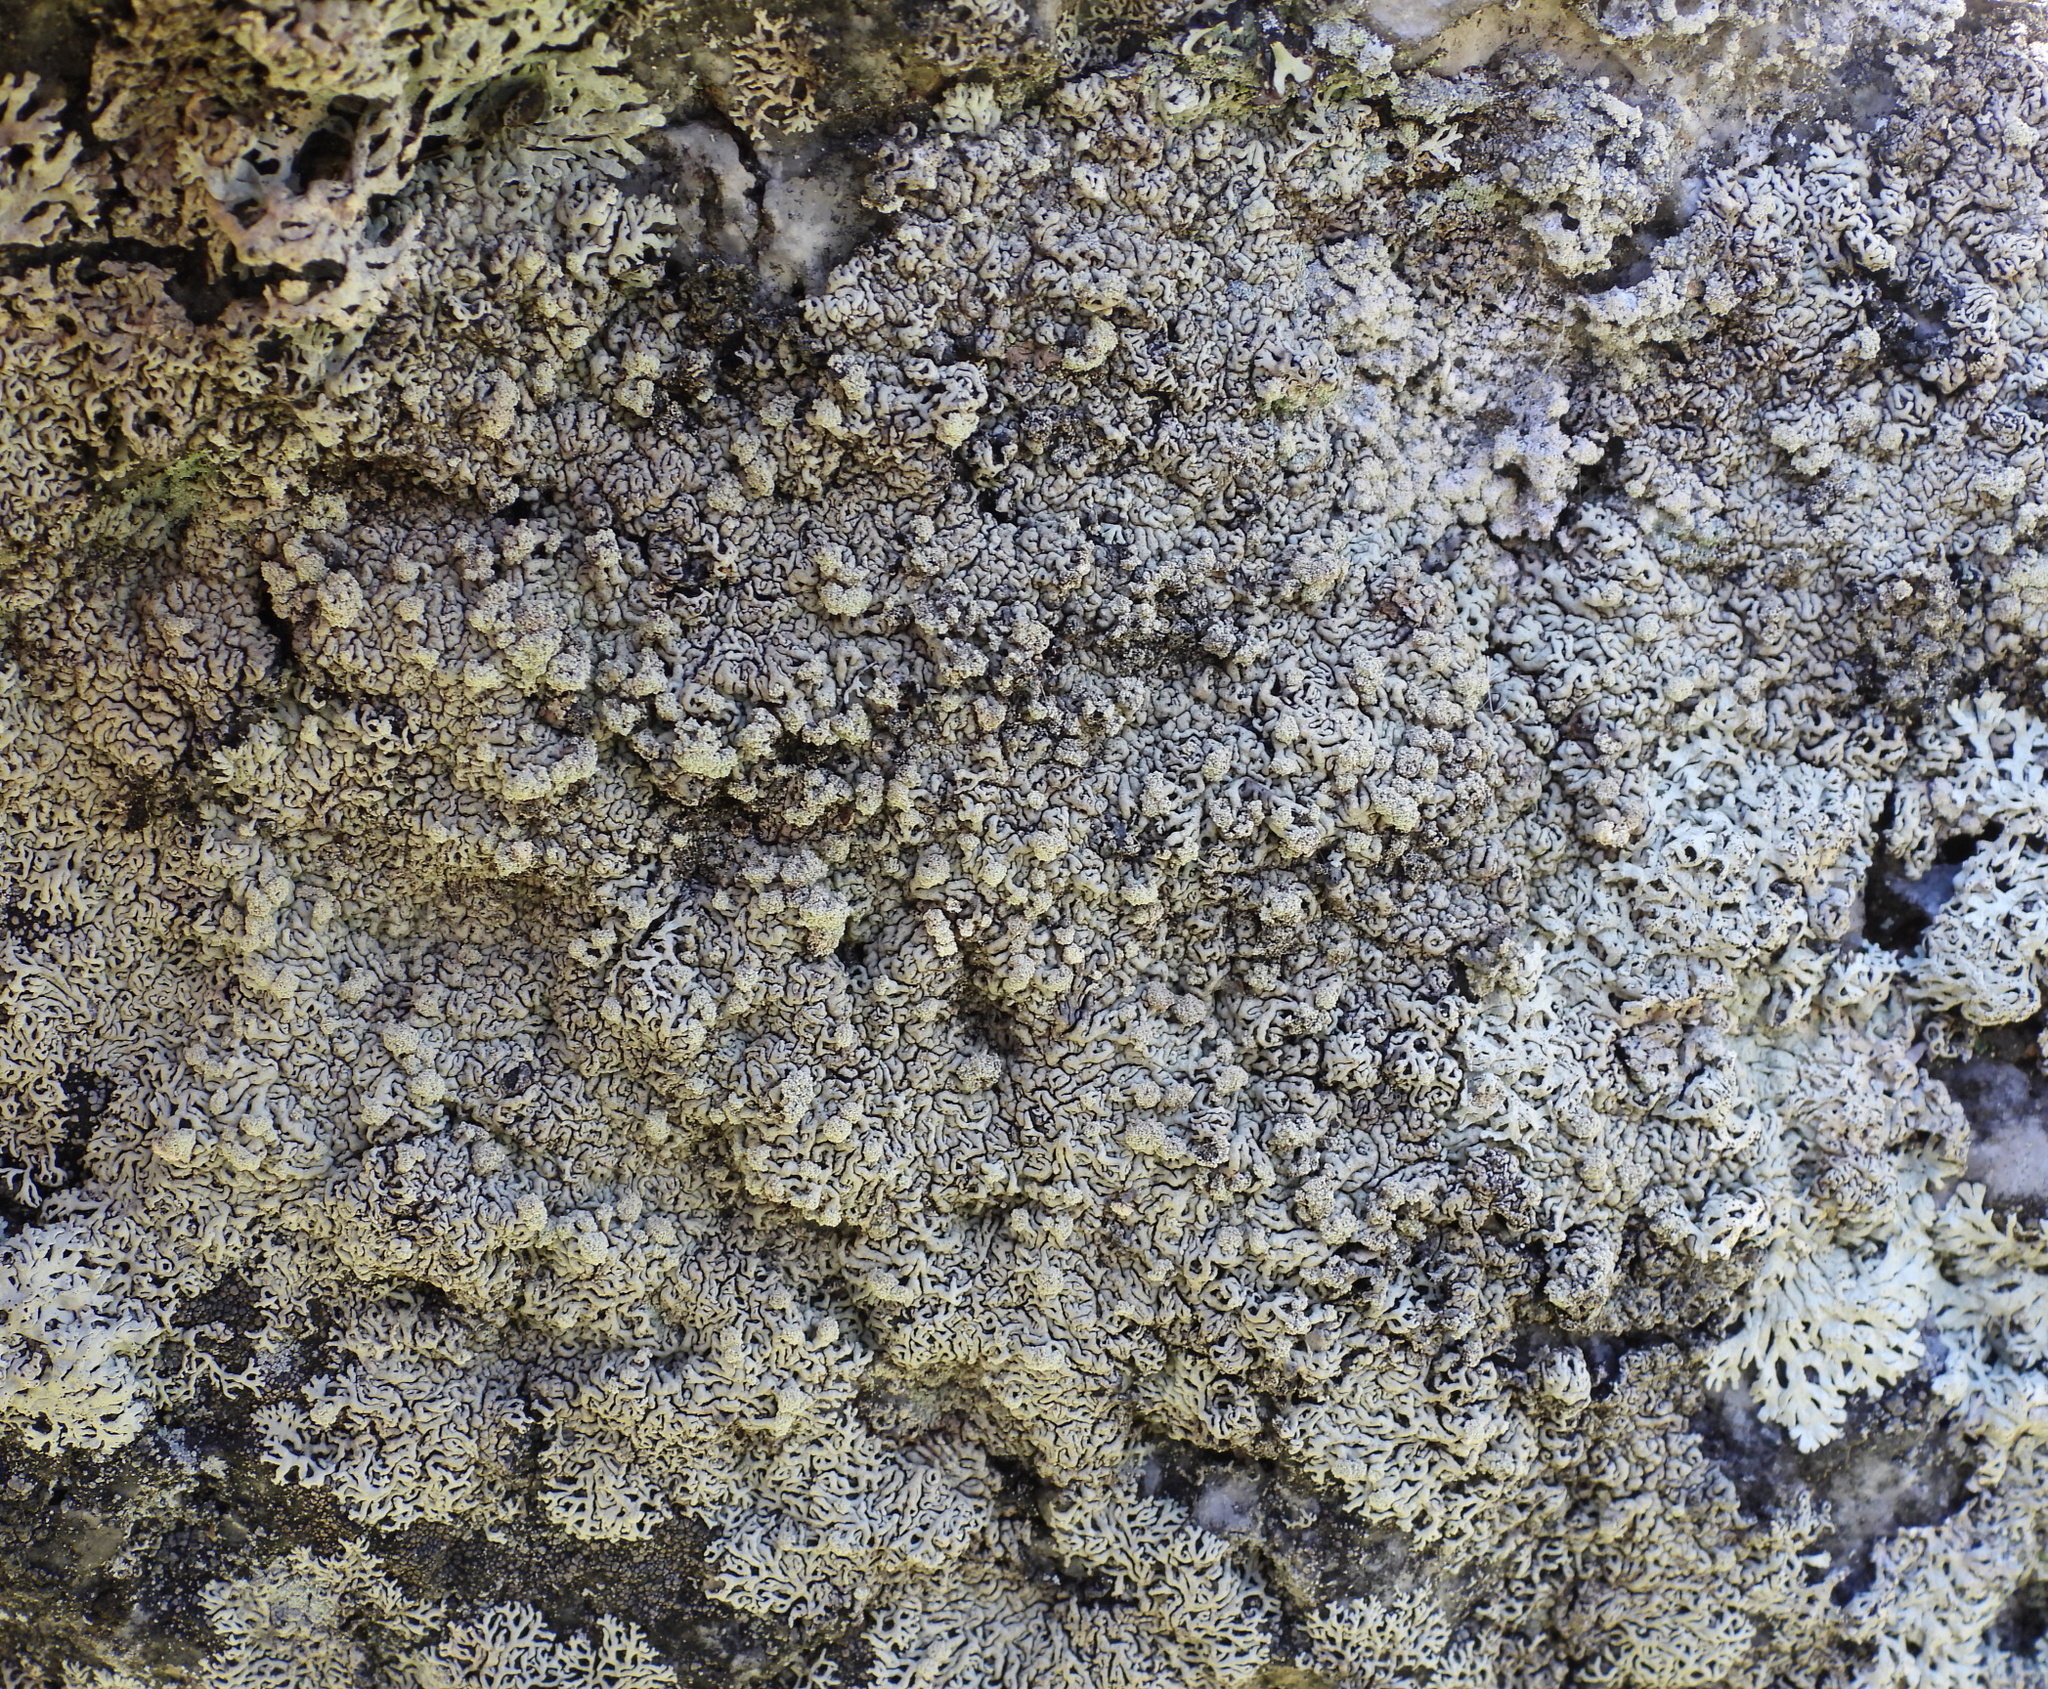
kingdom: Fungi
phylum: Ascomycota
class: Lecanoromycetes
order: Lecanorales
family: Parmeliaceae
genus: Arctoparmelia
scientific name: Arctoparmelia incurva
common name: Bent ring lichen
